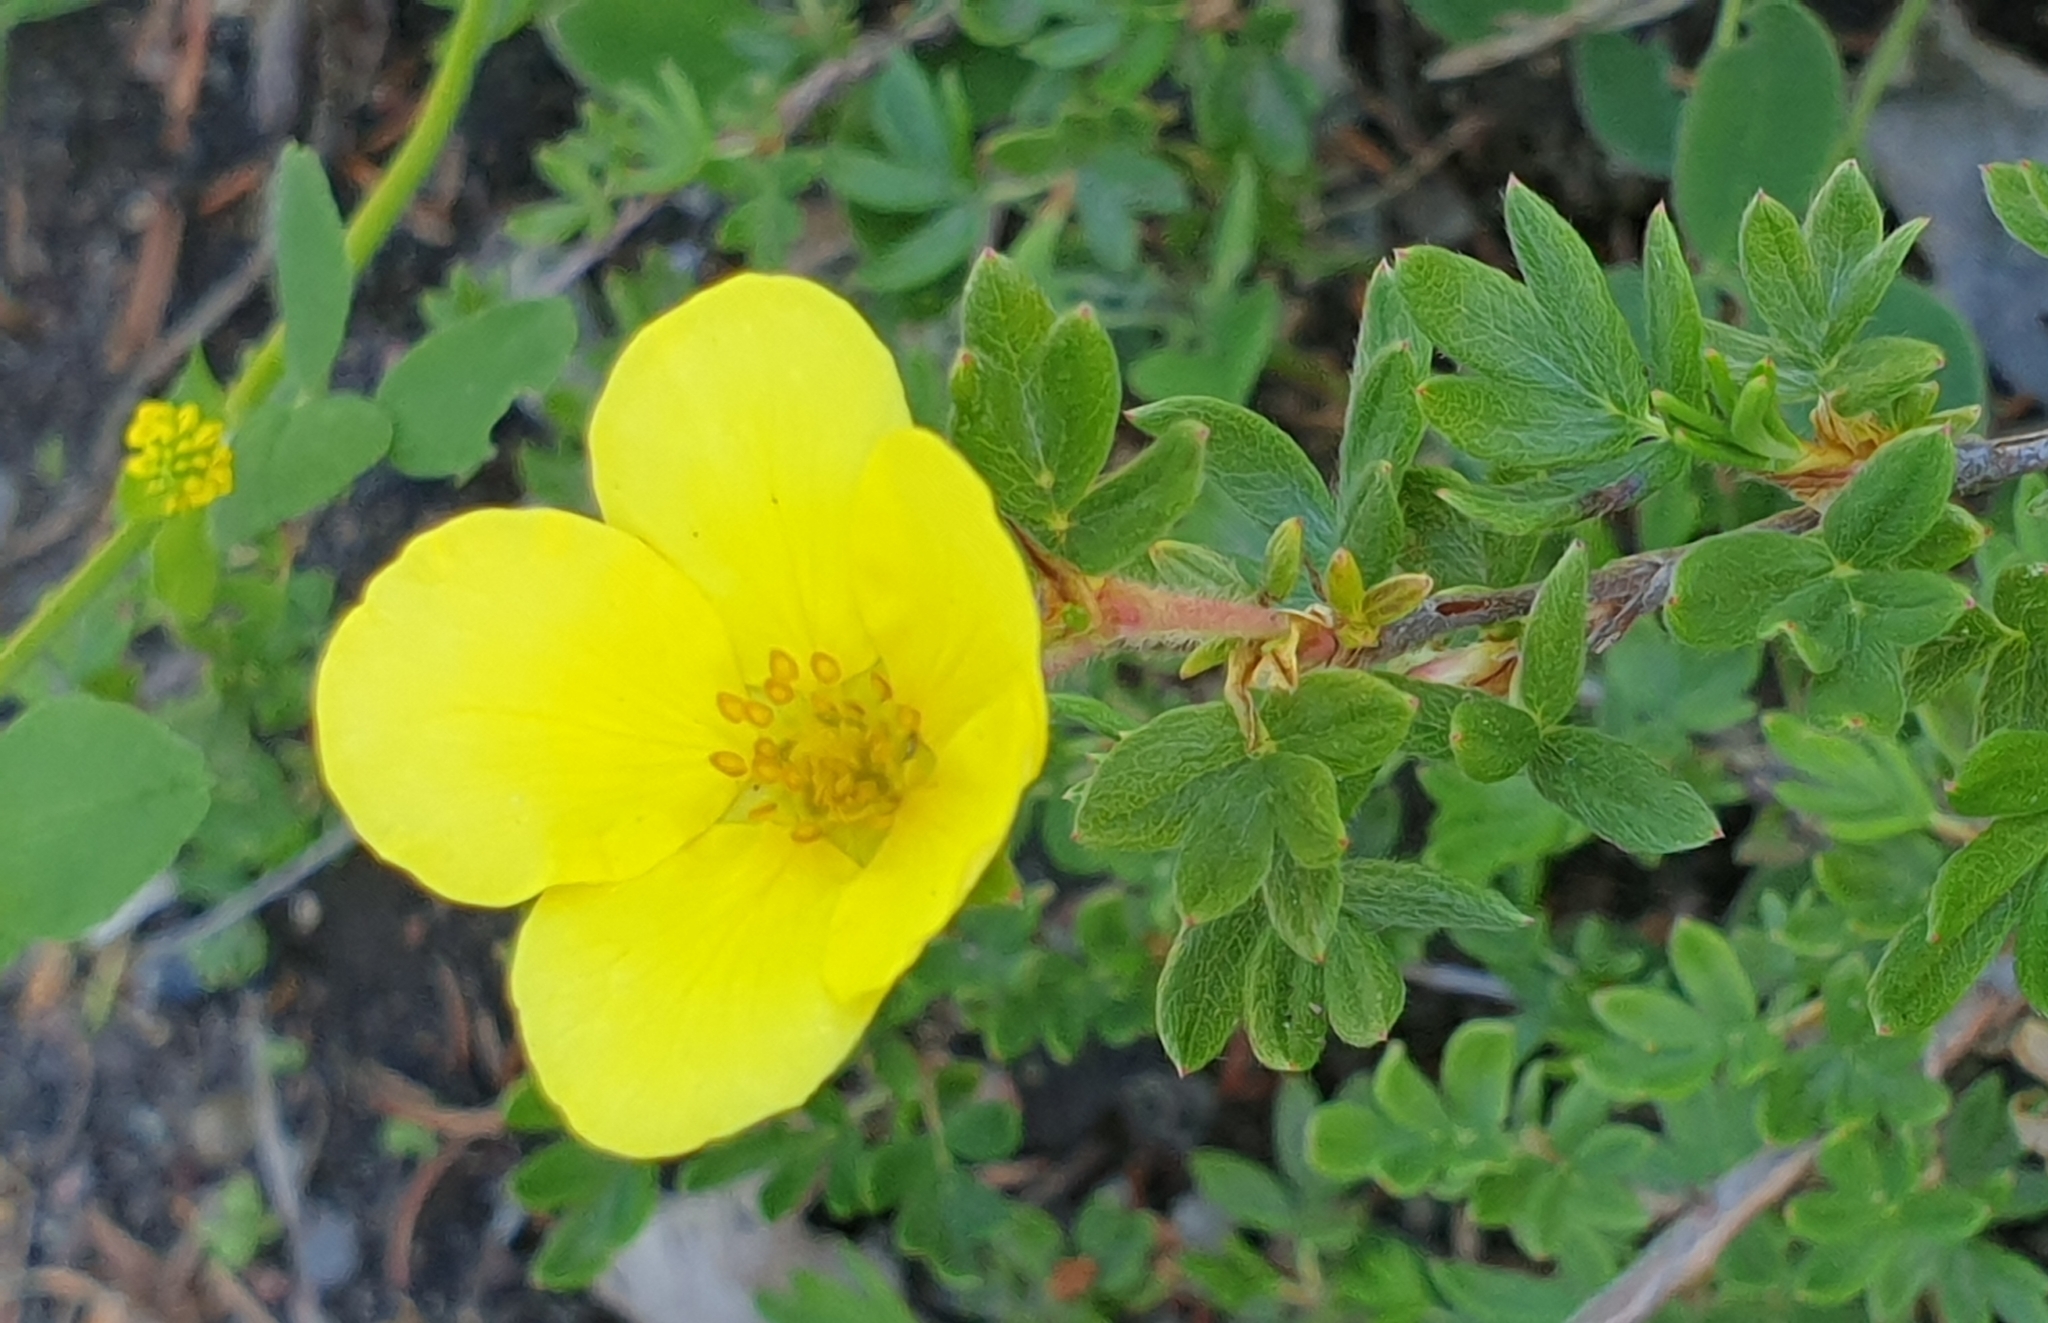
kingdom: Plantae
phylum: Tracheophyta
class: Magnoliopsida
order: Rosales
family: Rosaceae
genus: Dasiphora
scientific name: Dasiphora fruticosa
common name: Shrubby cinquefoil
